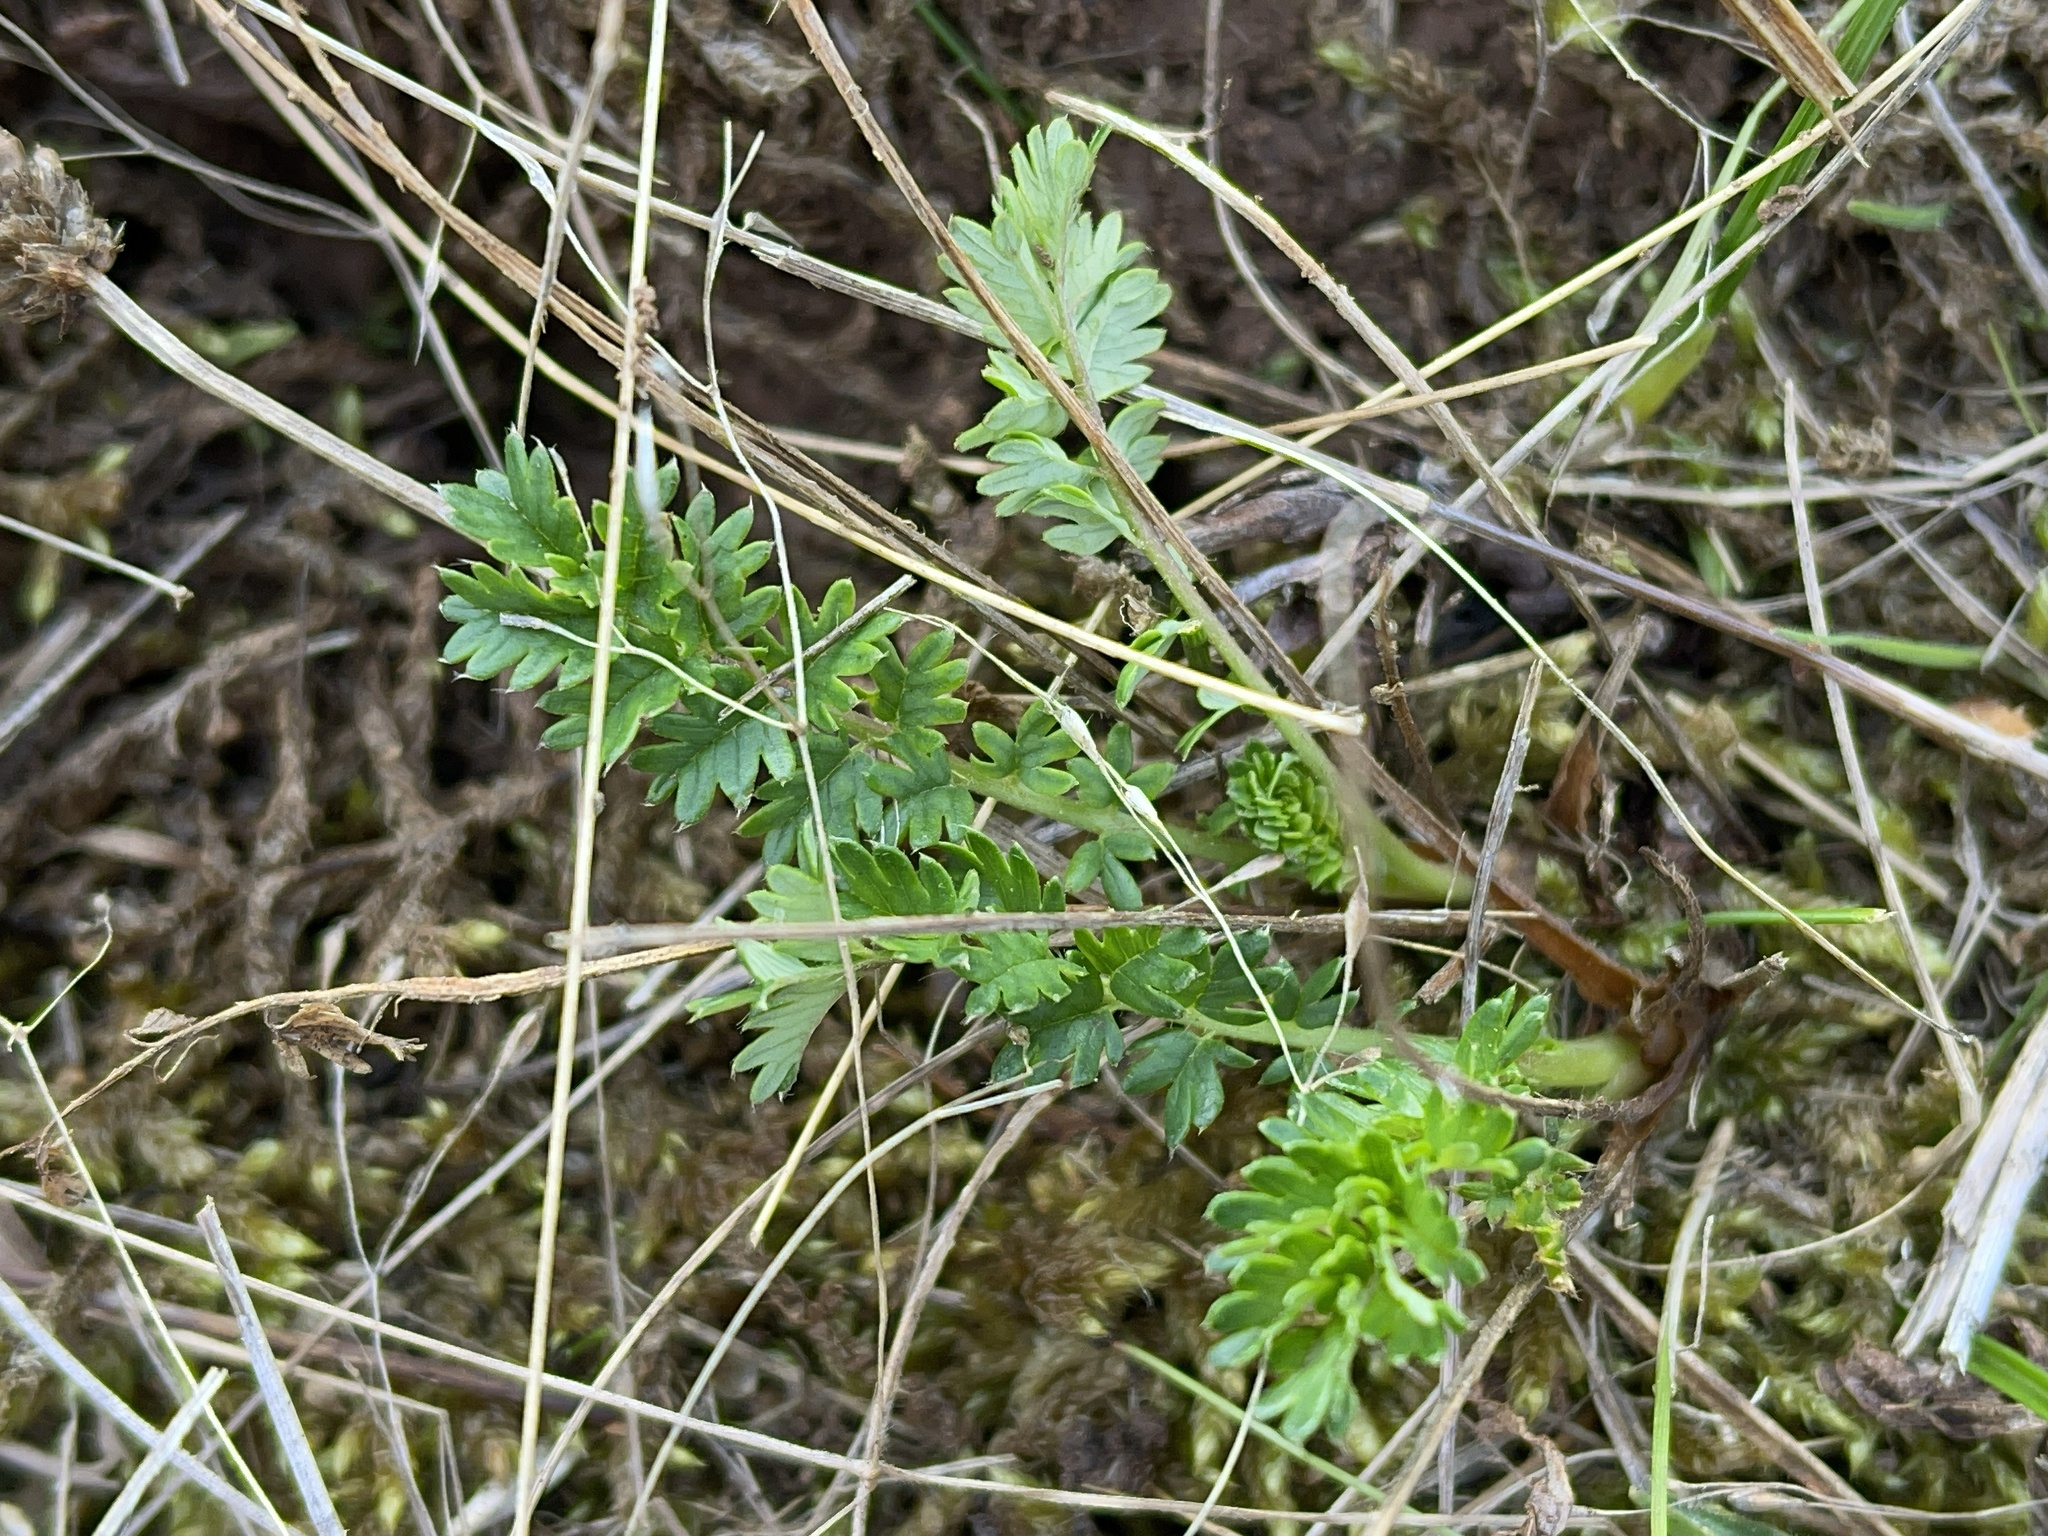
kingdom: Plantae
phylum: Tracheophyta
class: Magnoliopsida
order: Rosales
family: Rosaceae
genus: Acaena
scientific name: Acaena echinata
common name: Sheepbur
